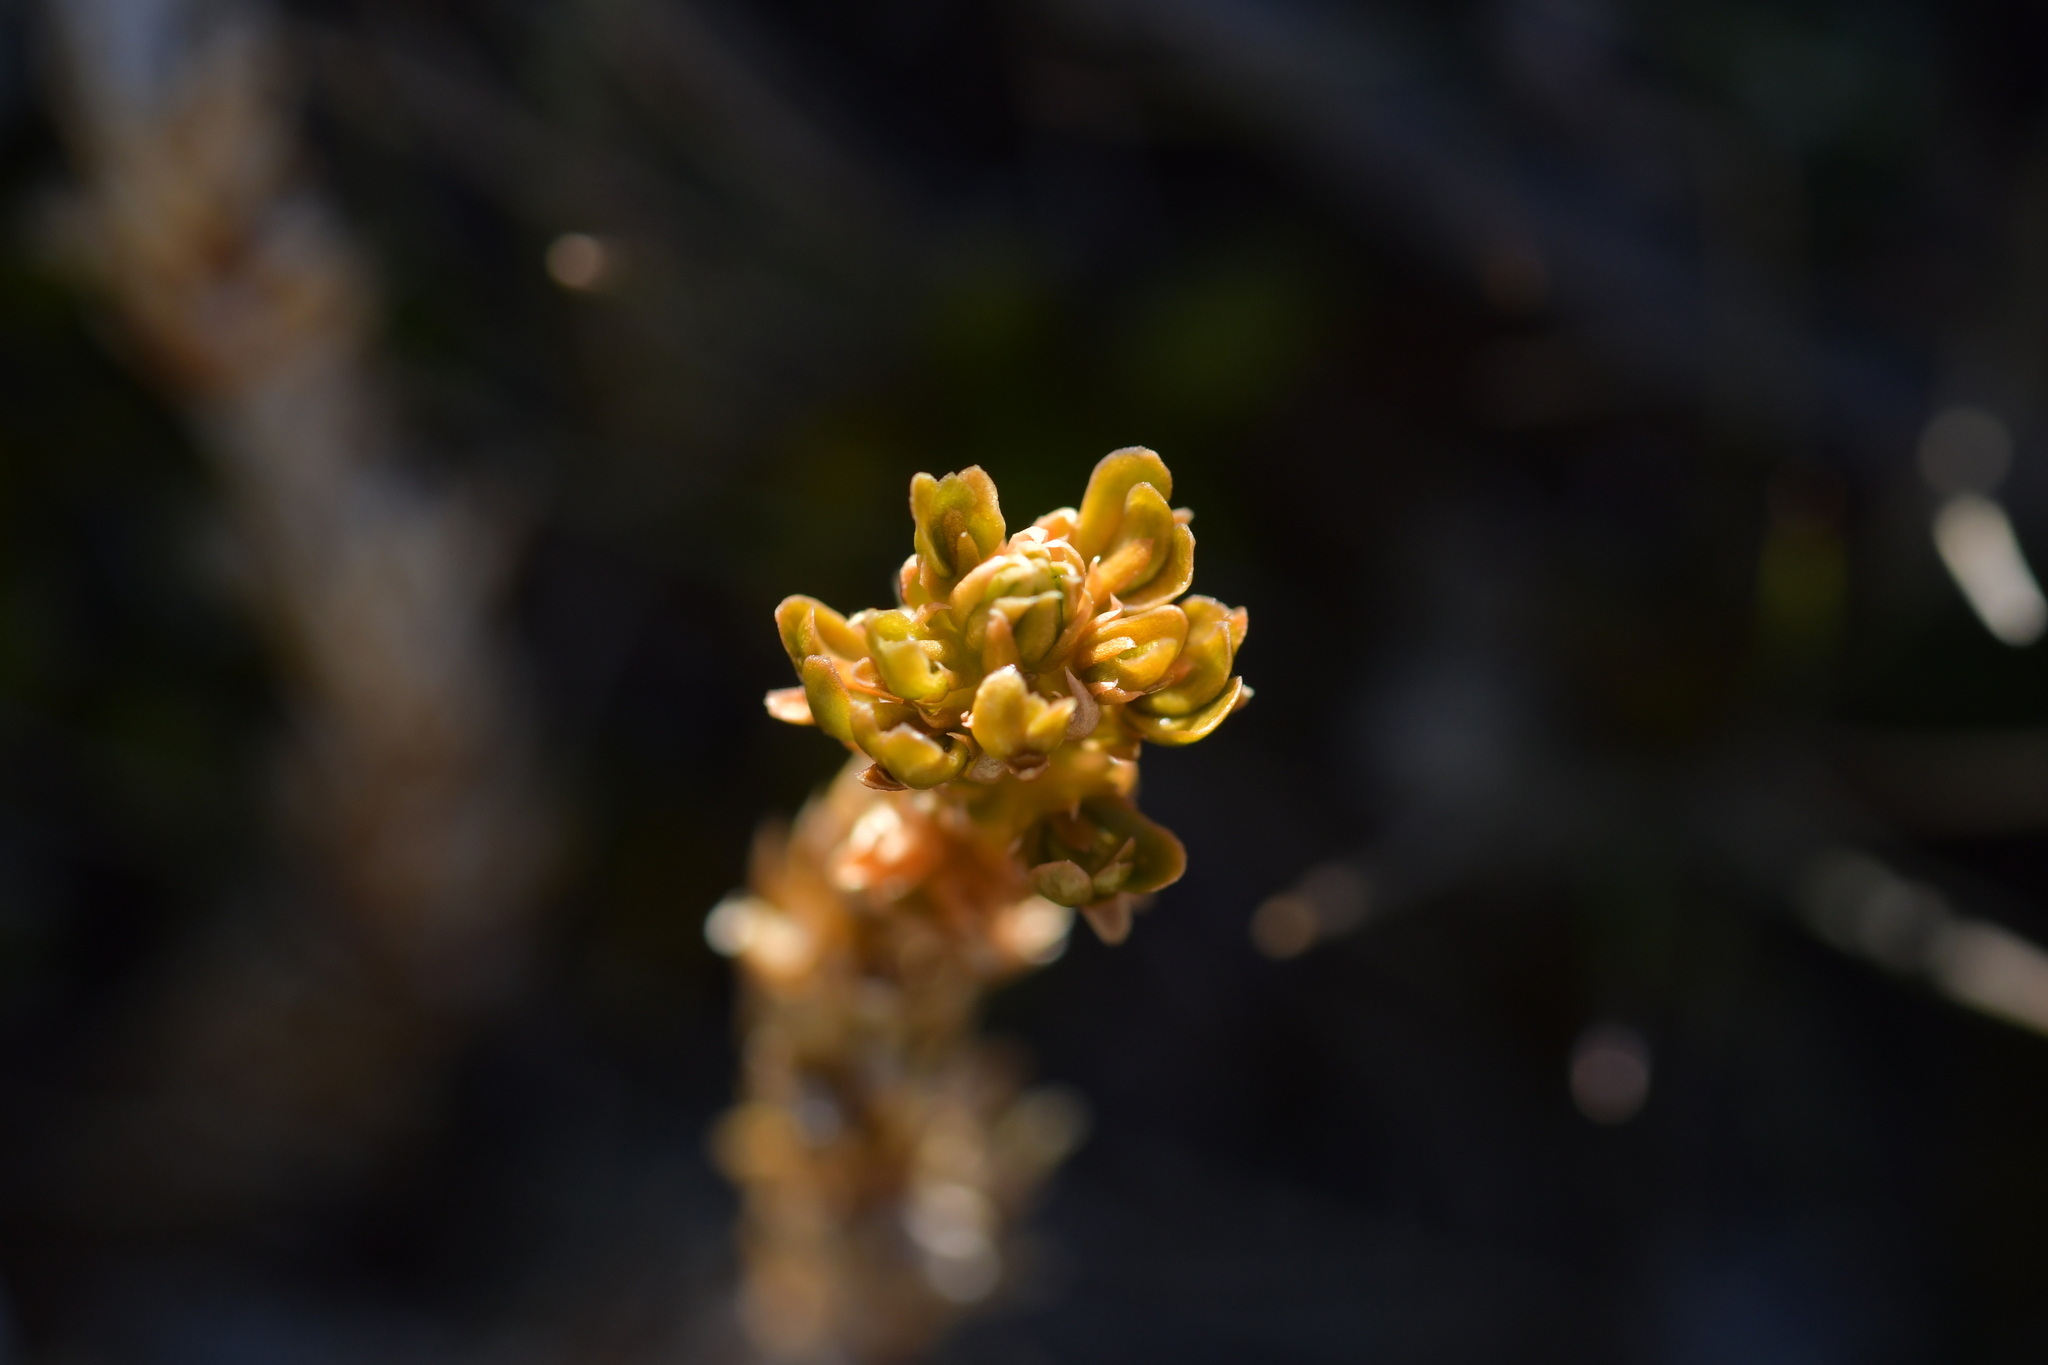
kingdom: Plantae
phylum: Tracheophyta
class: Lycopodiopsida
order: Lycopodiales
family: Lycopodiaceae
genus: Huperzia
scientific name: Huperzia australiana
